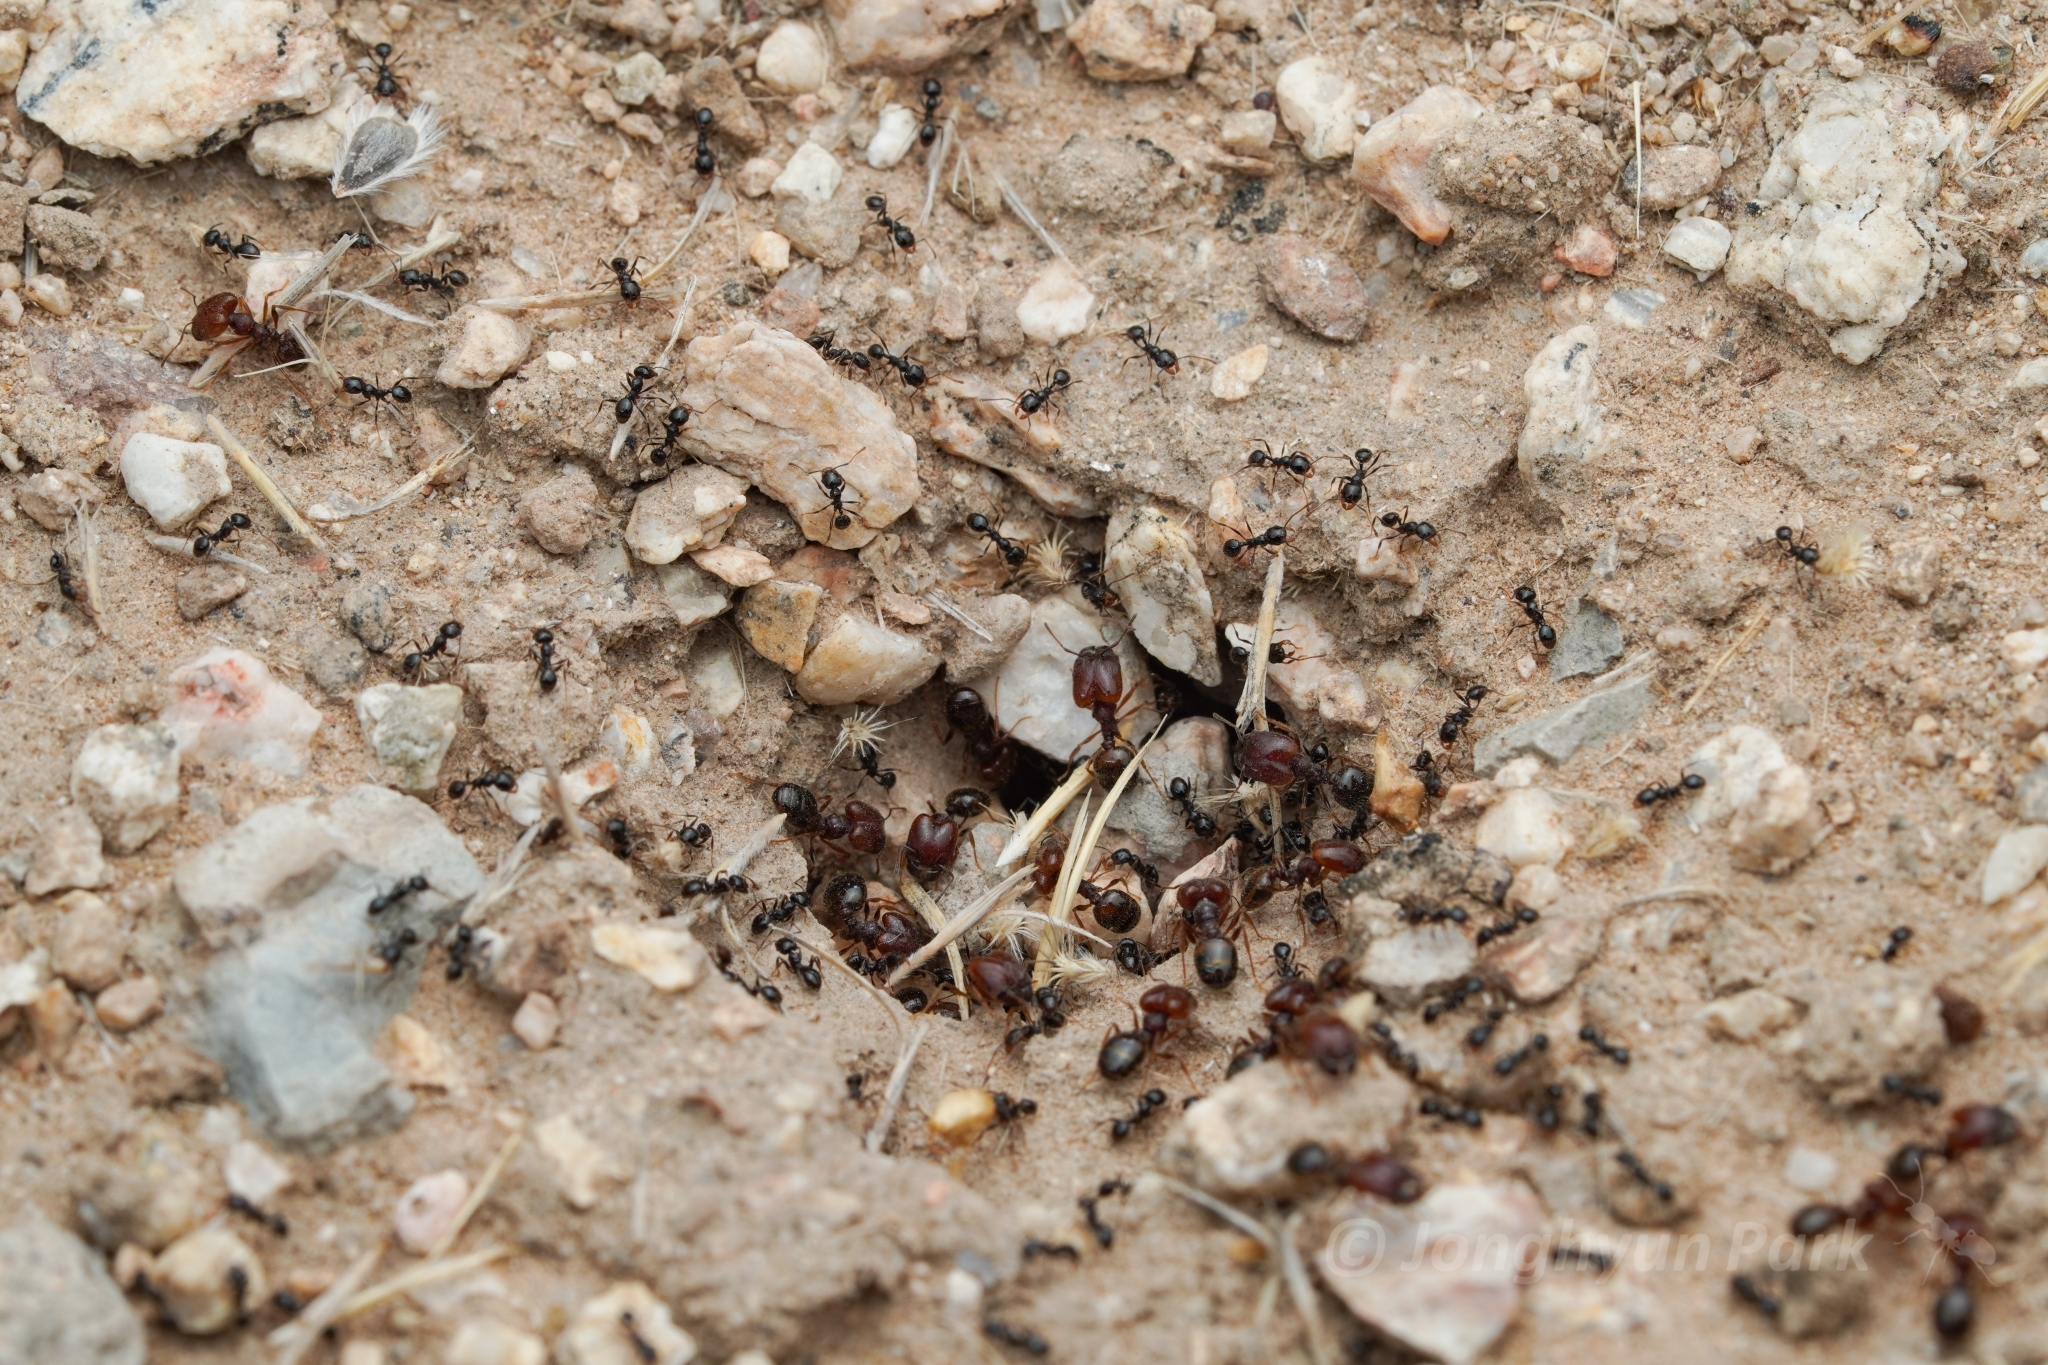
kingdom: Animalia
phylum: Arthropoda
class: Insecta
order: Hymenoptera
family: Formicidae
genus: Pheidole
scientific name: Pheidole xerophila
